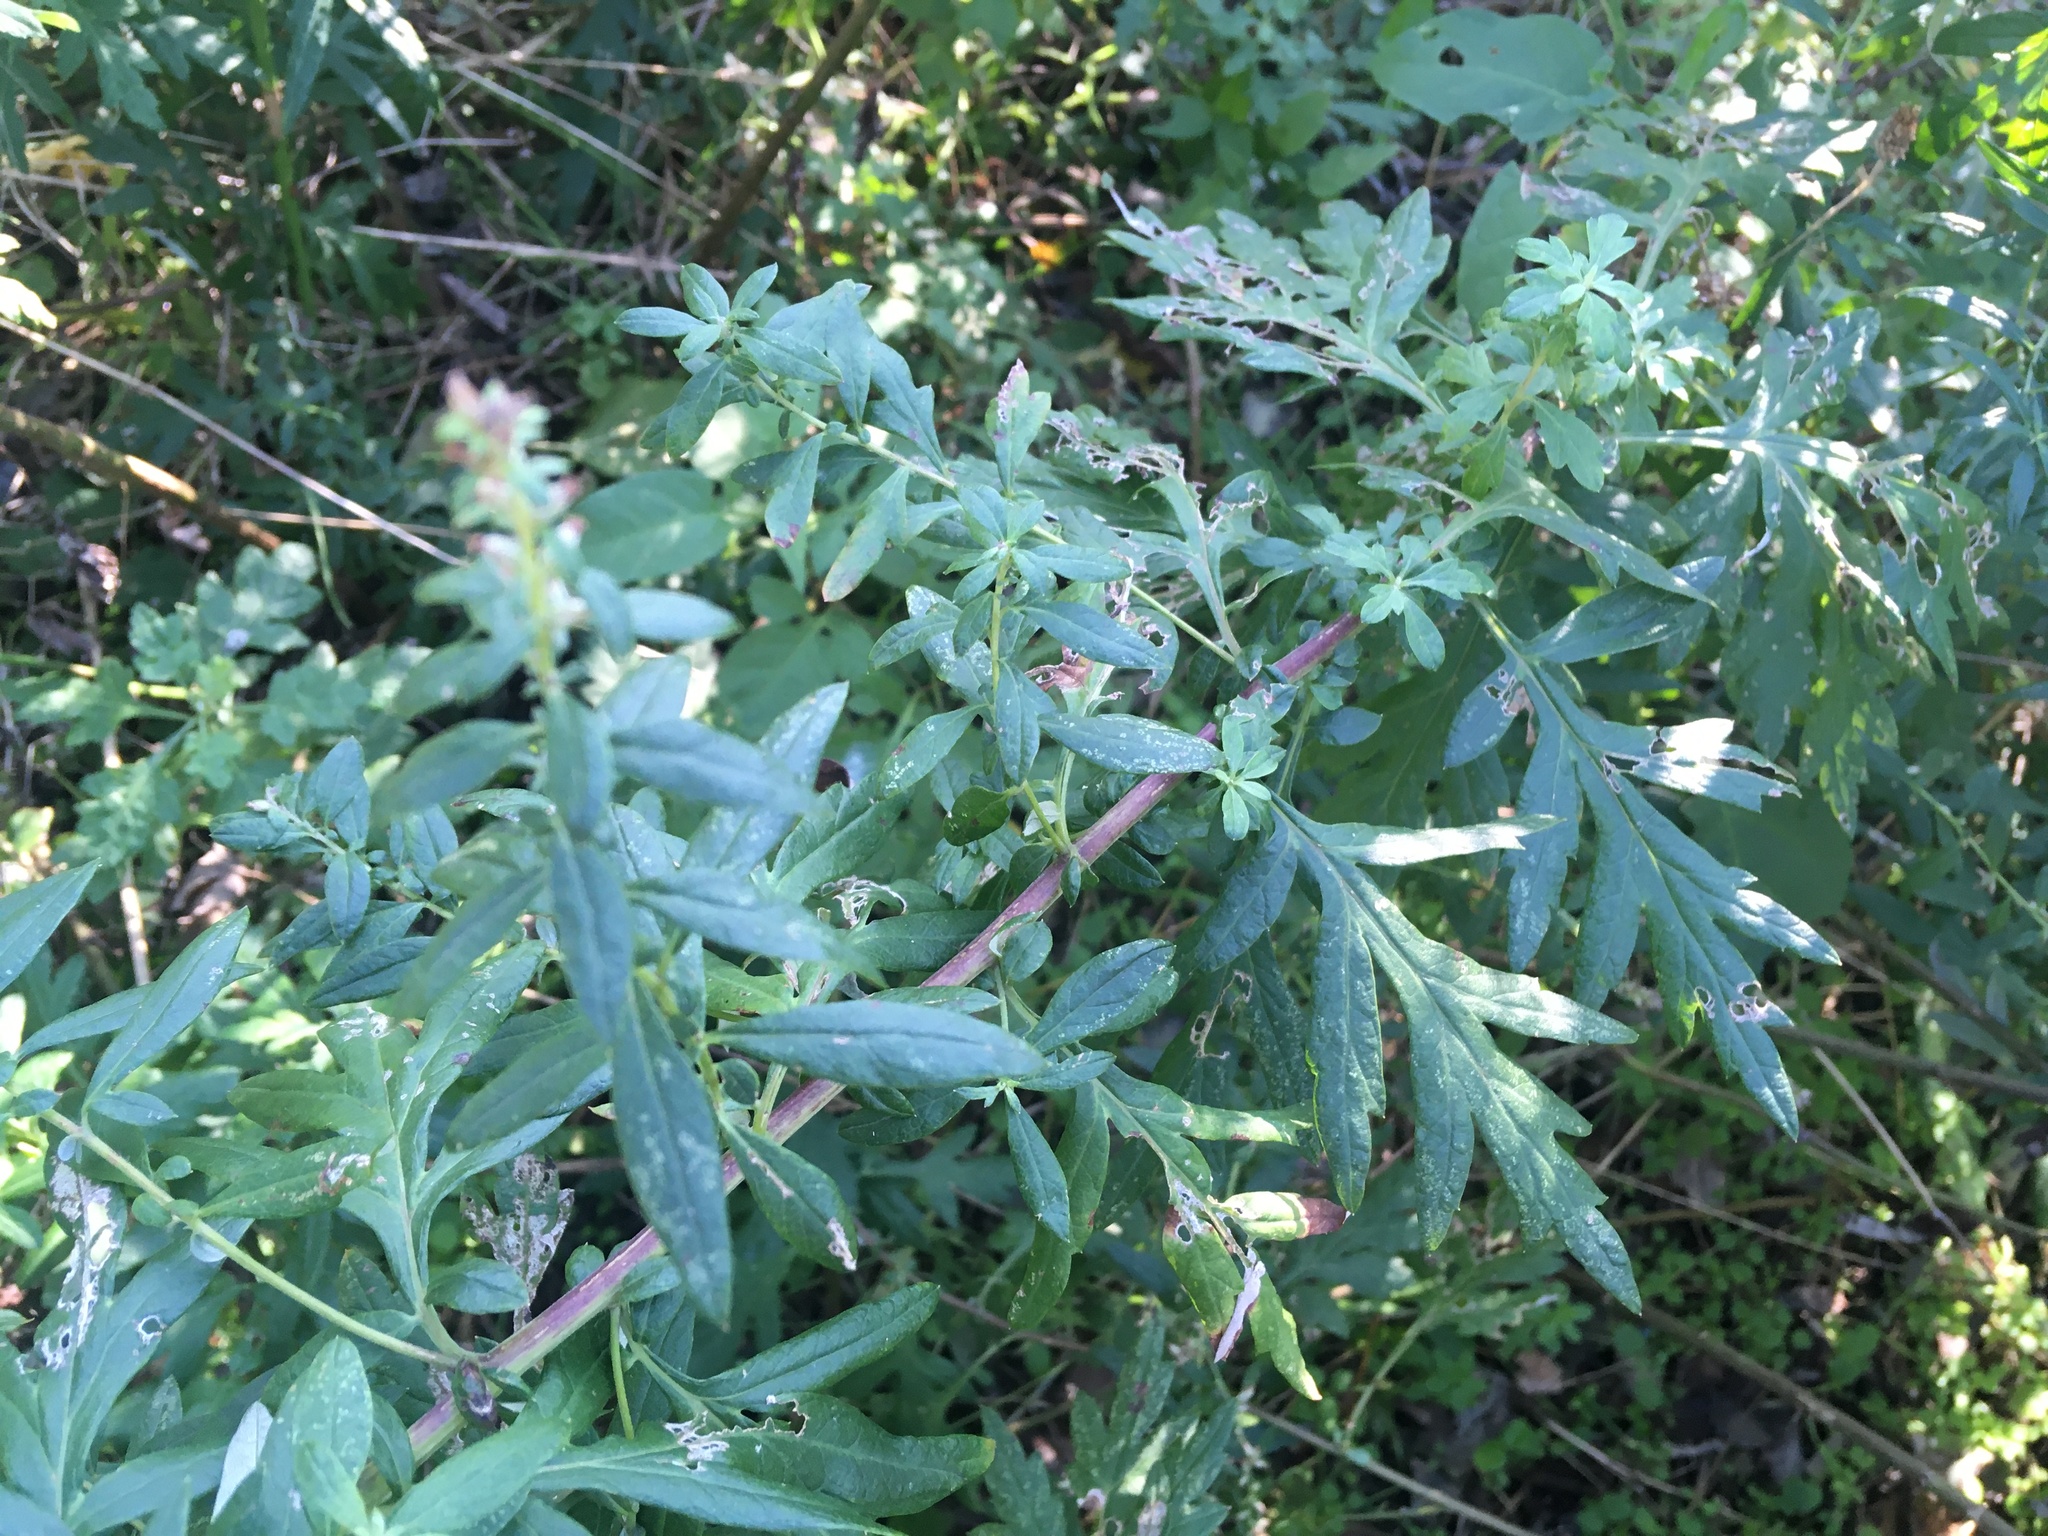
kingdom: Plantae
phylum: Tracheophyta
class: Magnoliopsida
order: Asterales
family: Asteraceae
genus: Artemisia
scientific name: Artemisia vulgaris
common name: Mugwort
